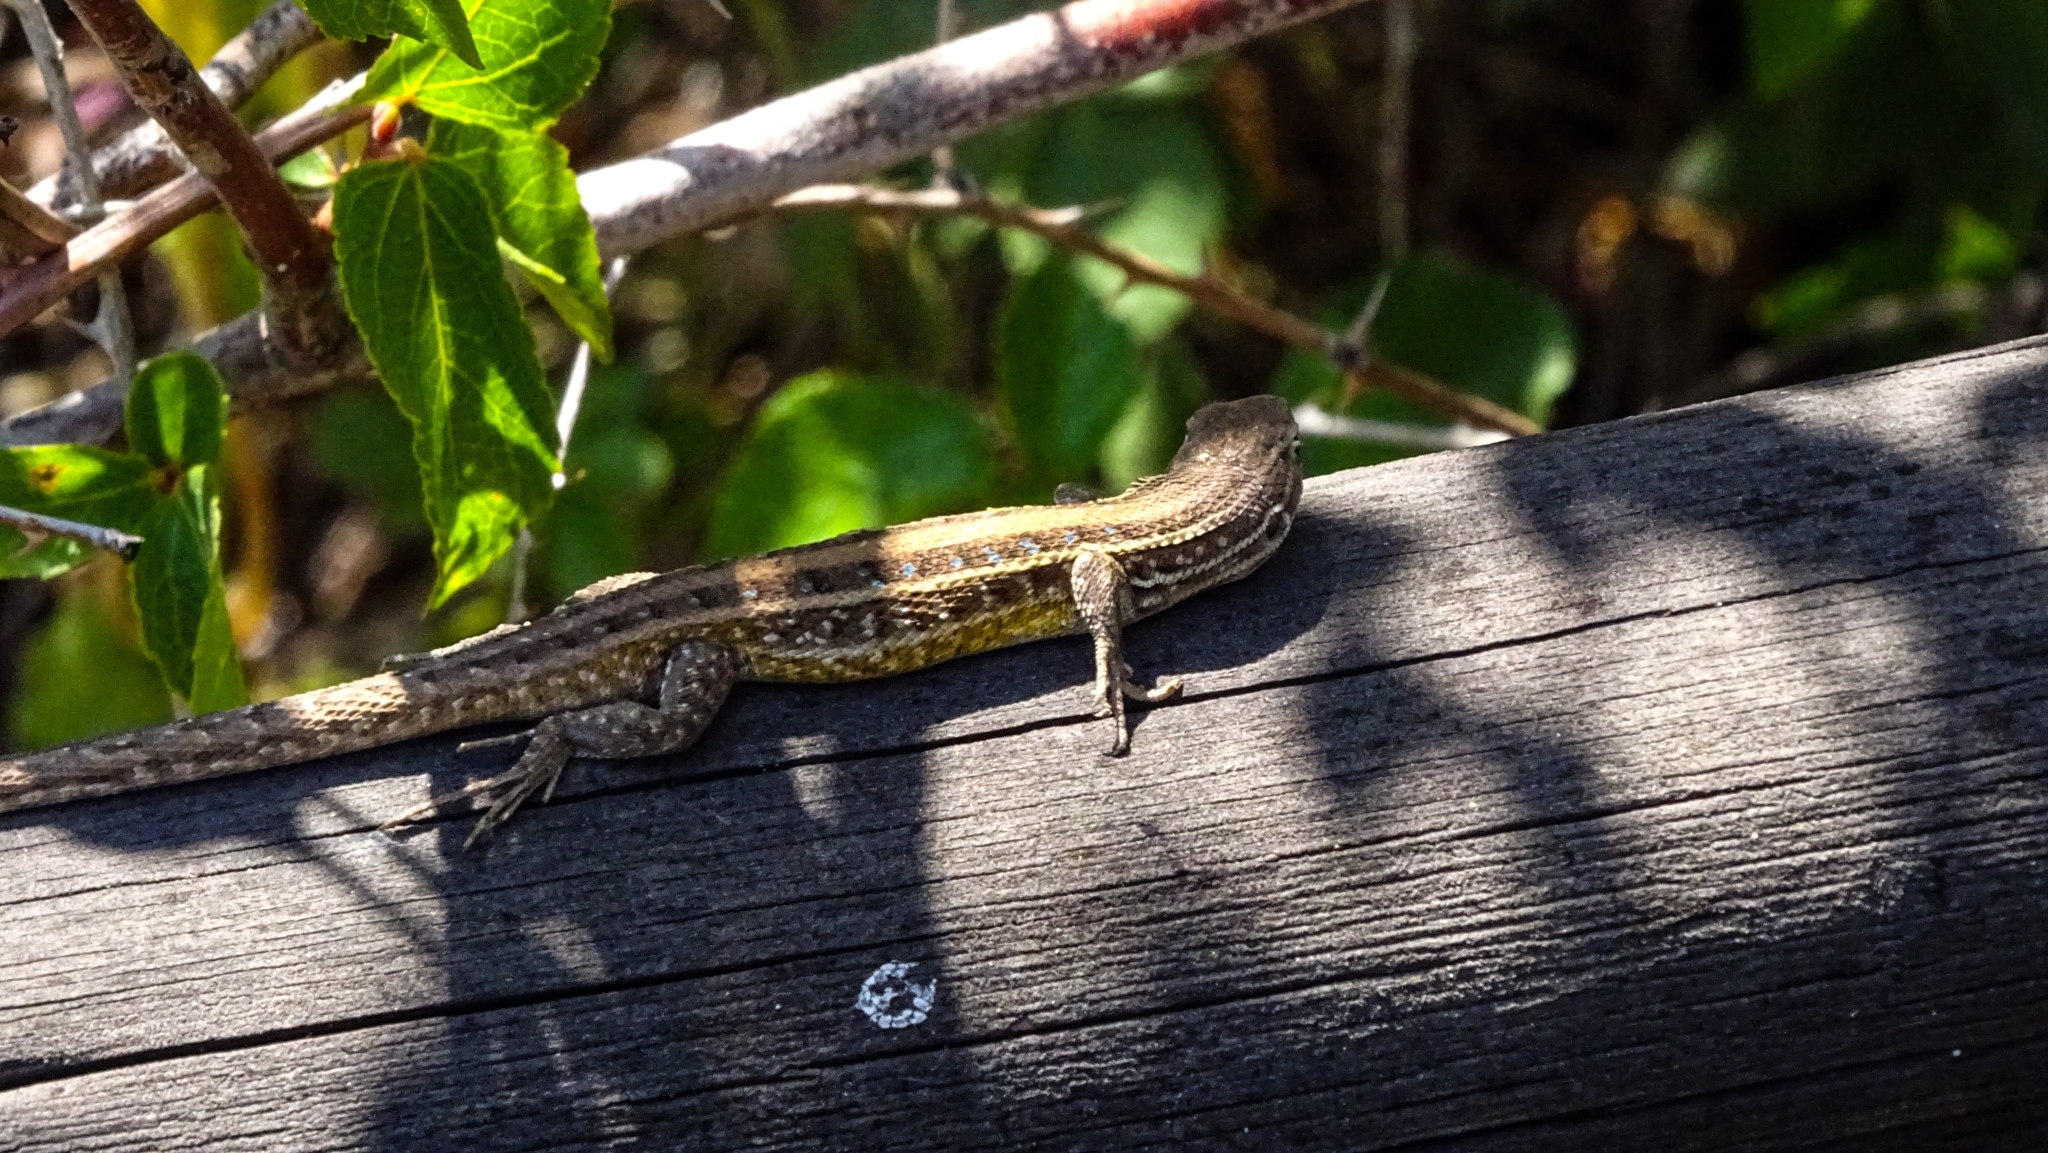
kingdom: Animalia
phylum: Chordata
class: Squamata
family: Liolaemidae
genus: Liolaemus
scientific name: Liolaemus lemniscatus
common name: Wreath tree iguana
